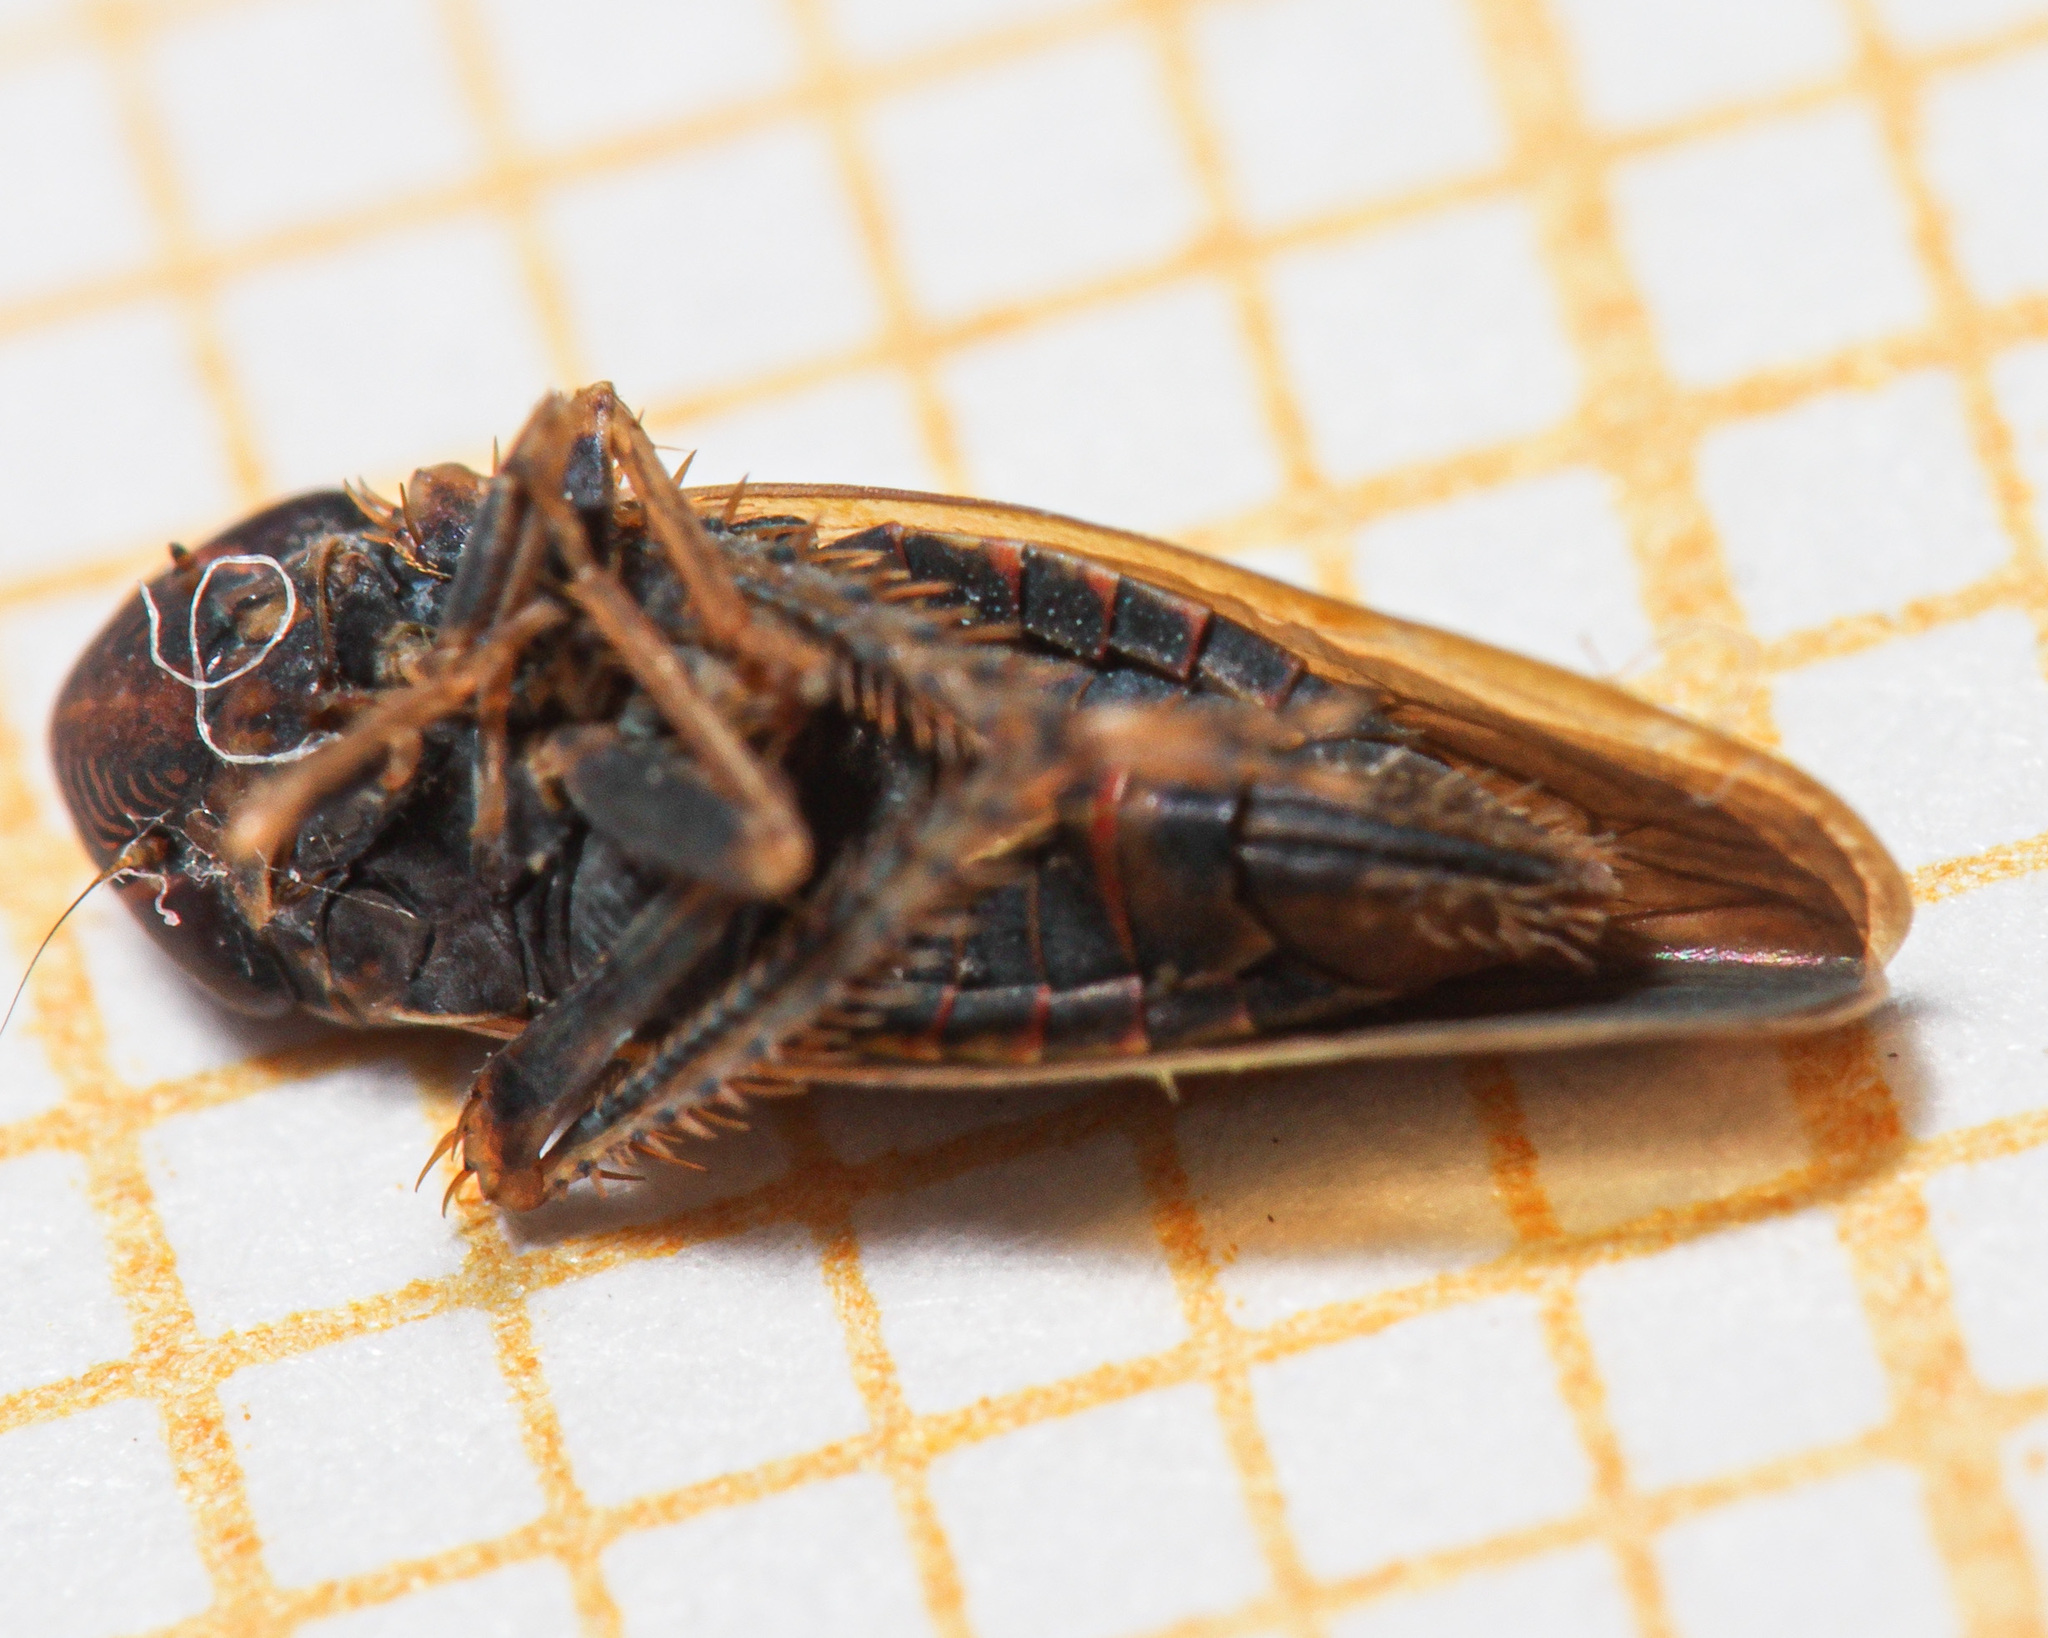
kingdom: Animalia
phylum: Arthropoda
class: Insecta
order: Hemiptera
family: Cicadellidae
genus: Speudotettix
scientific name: Speudotettix subfusculus
